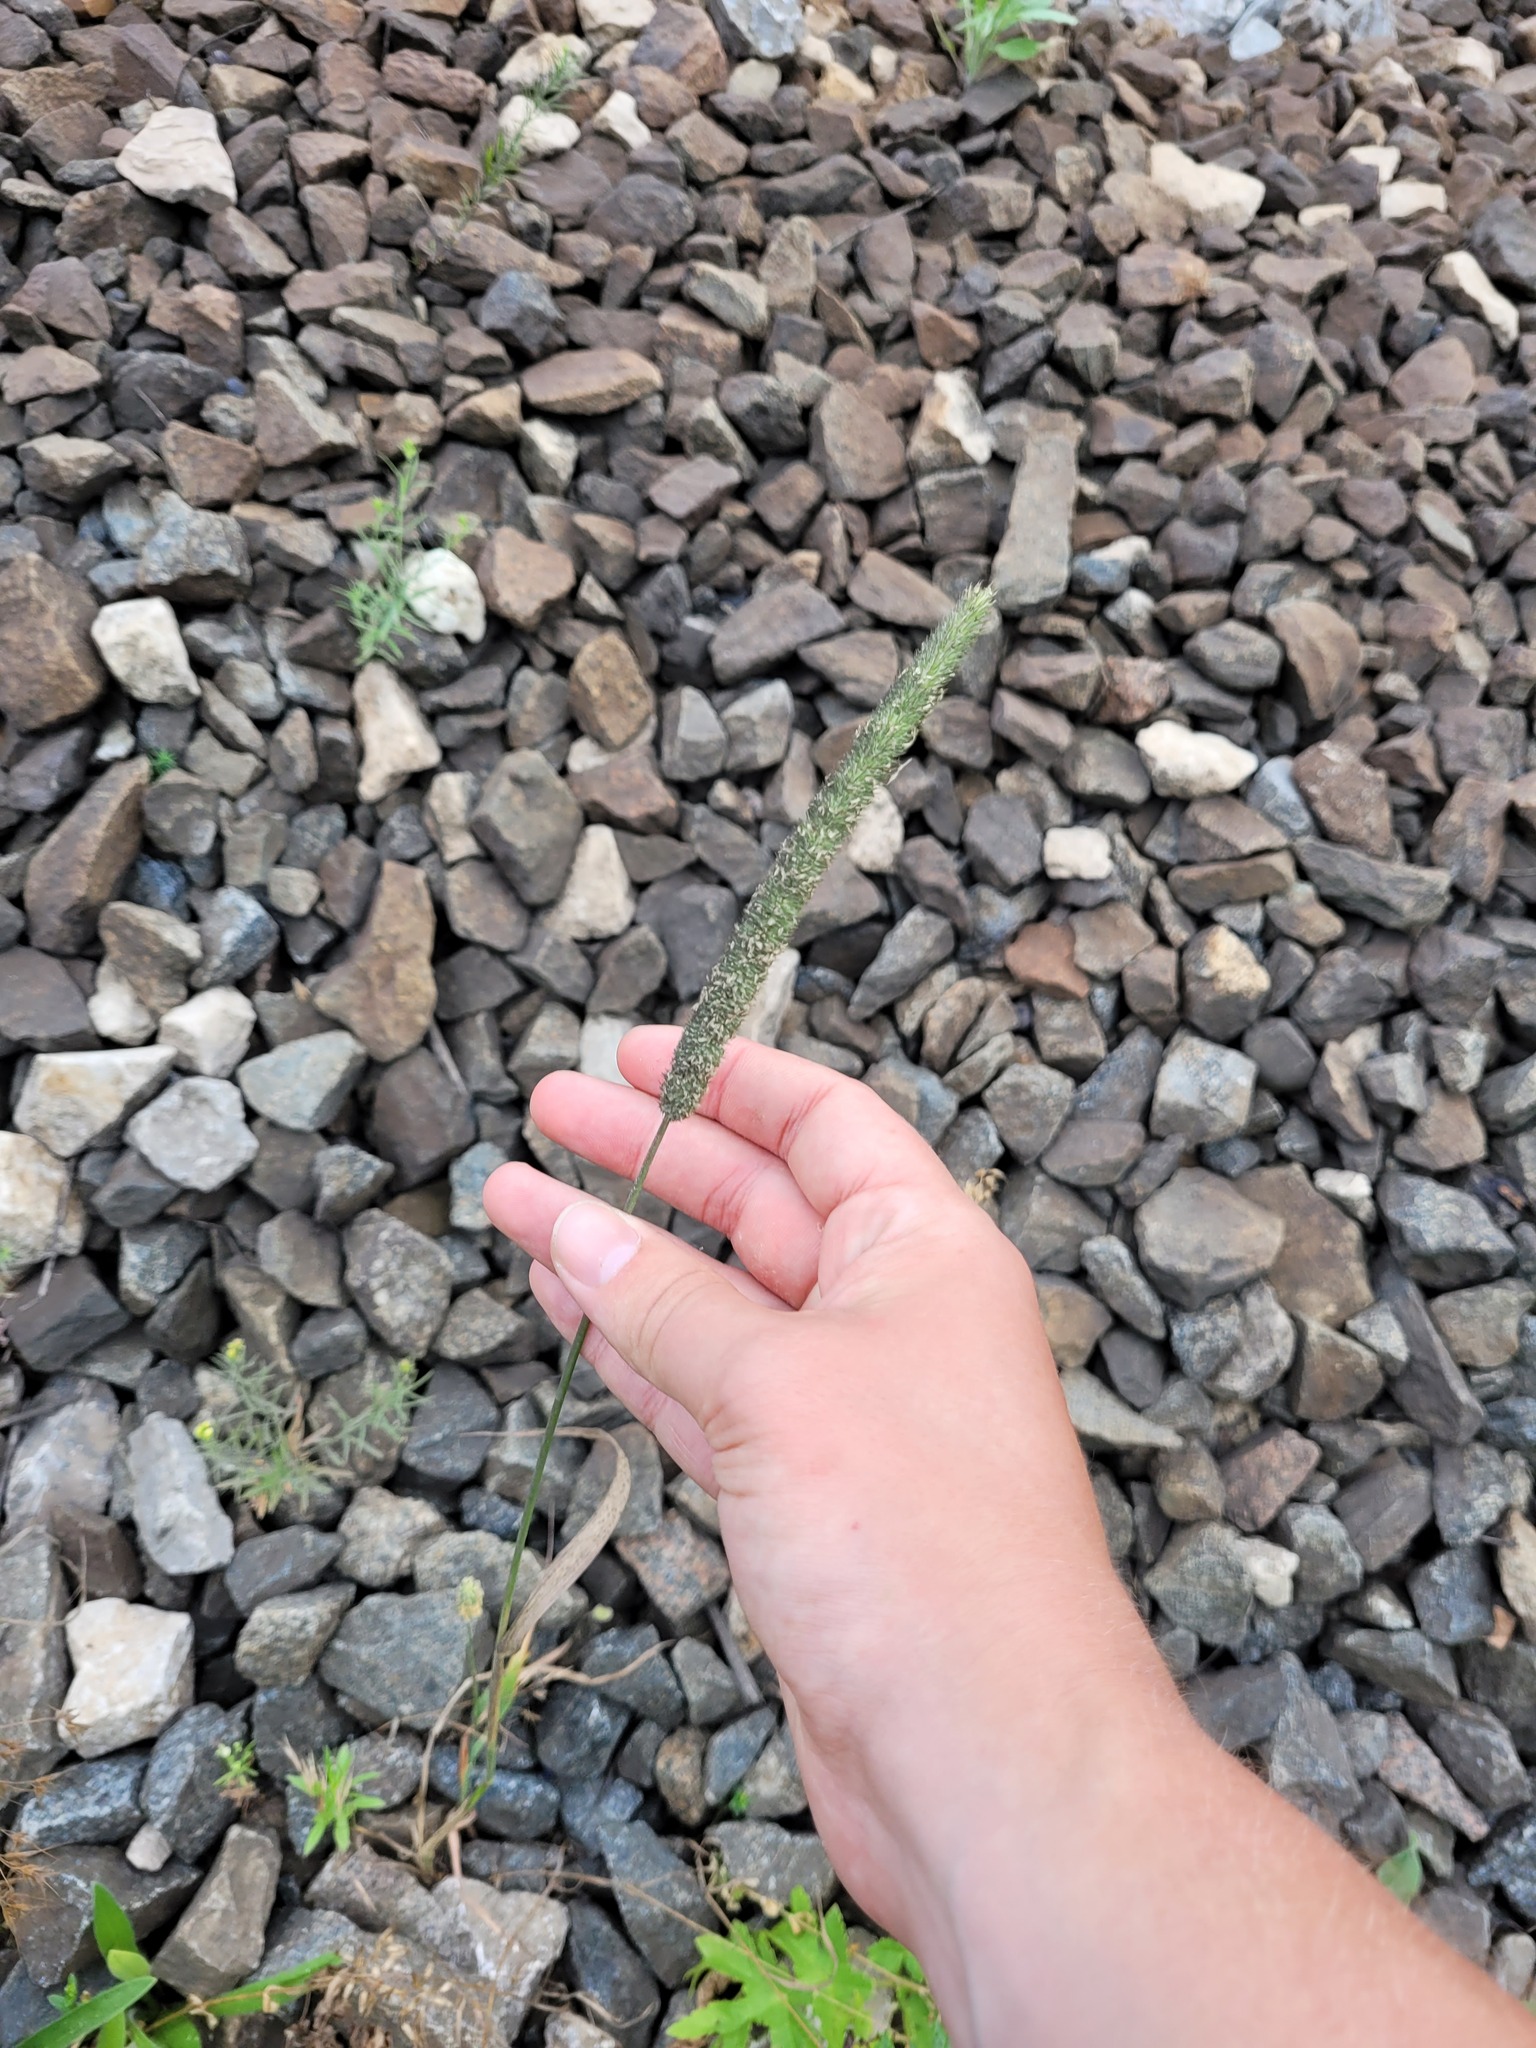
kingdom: Plantae
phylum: Tracheophyta
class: Liliopsida
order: Poales
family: Poaceae
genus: Phleum
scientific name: Phleum pratense
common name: Timothy grass
